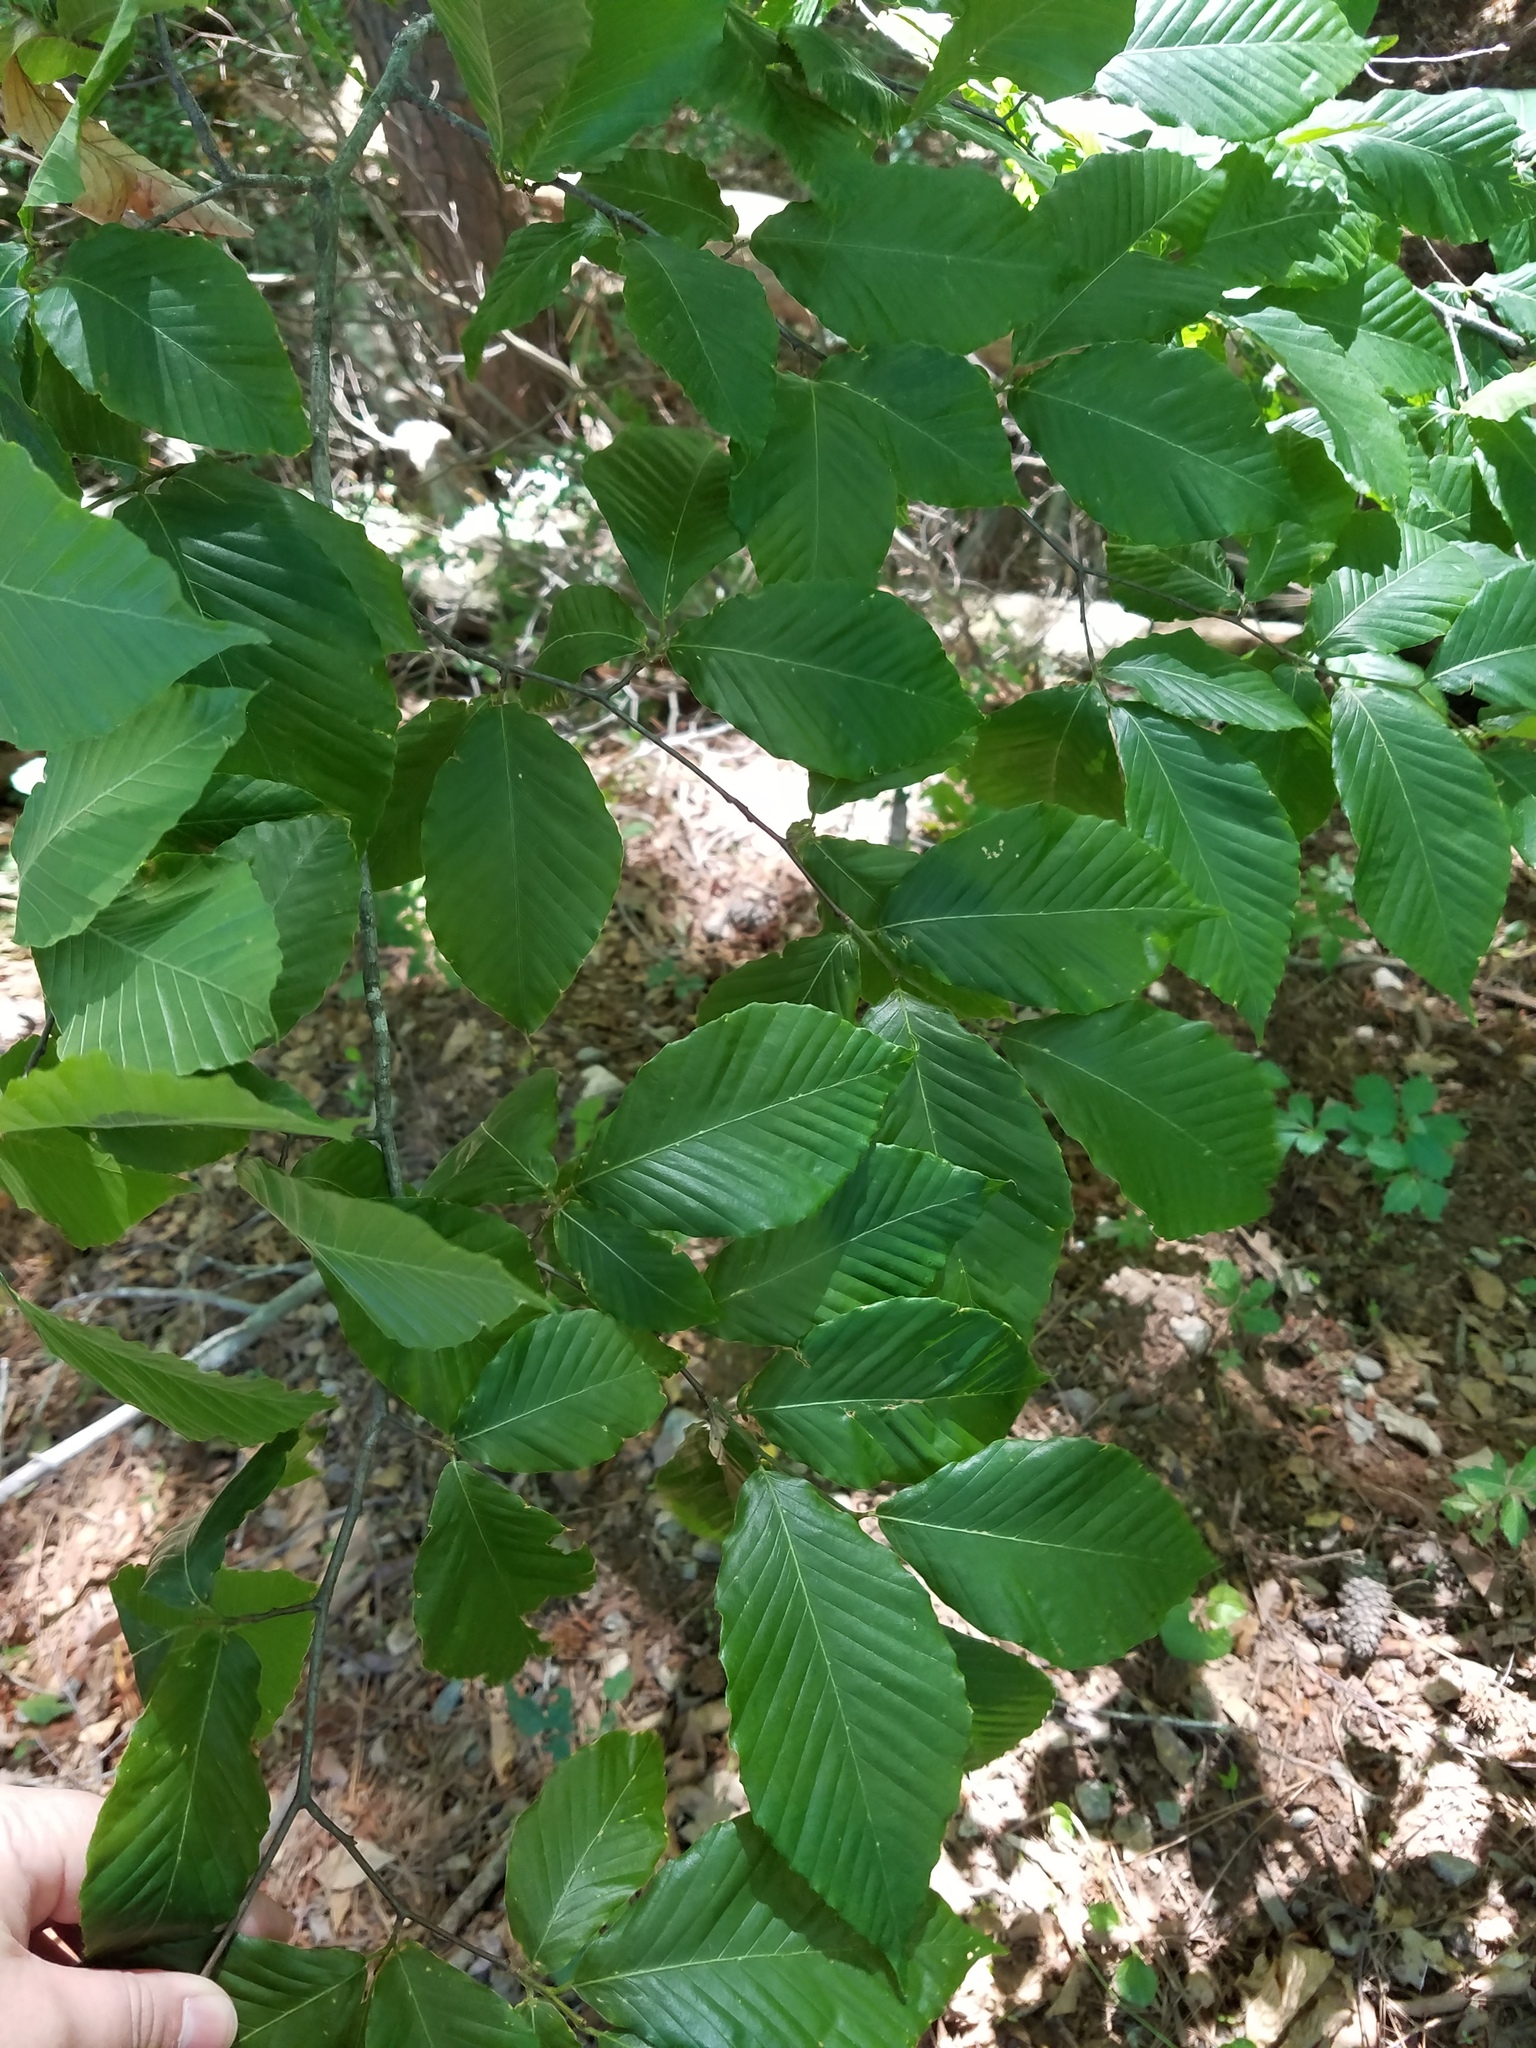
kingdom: Plantae
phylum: Tracheophyta
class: Magnoliopsida
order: Fagales
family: Fagaceae
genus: Fagus
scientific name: Fagus grandifolia
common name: American beech
